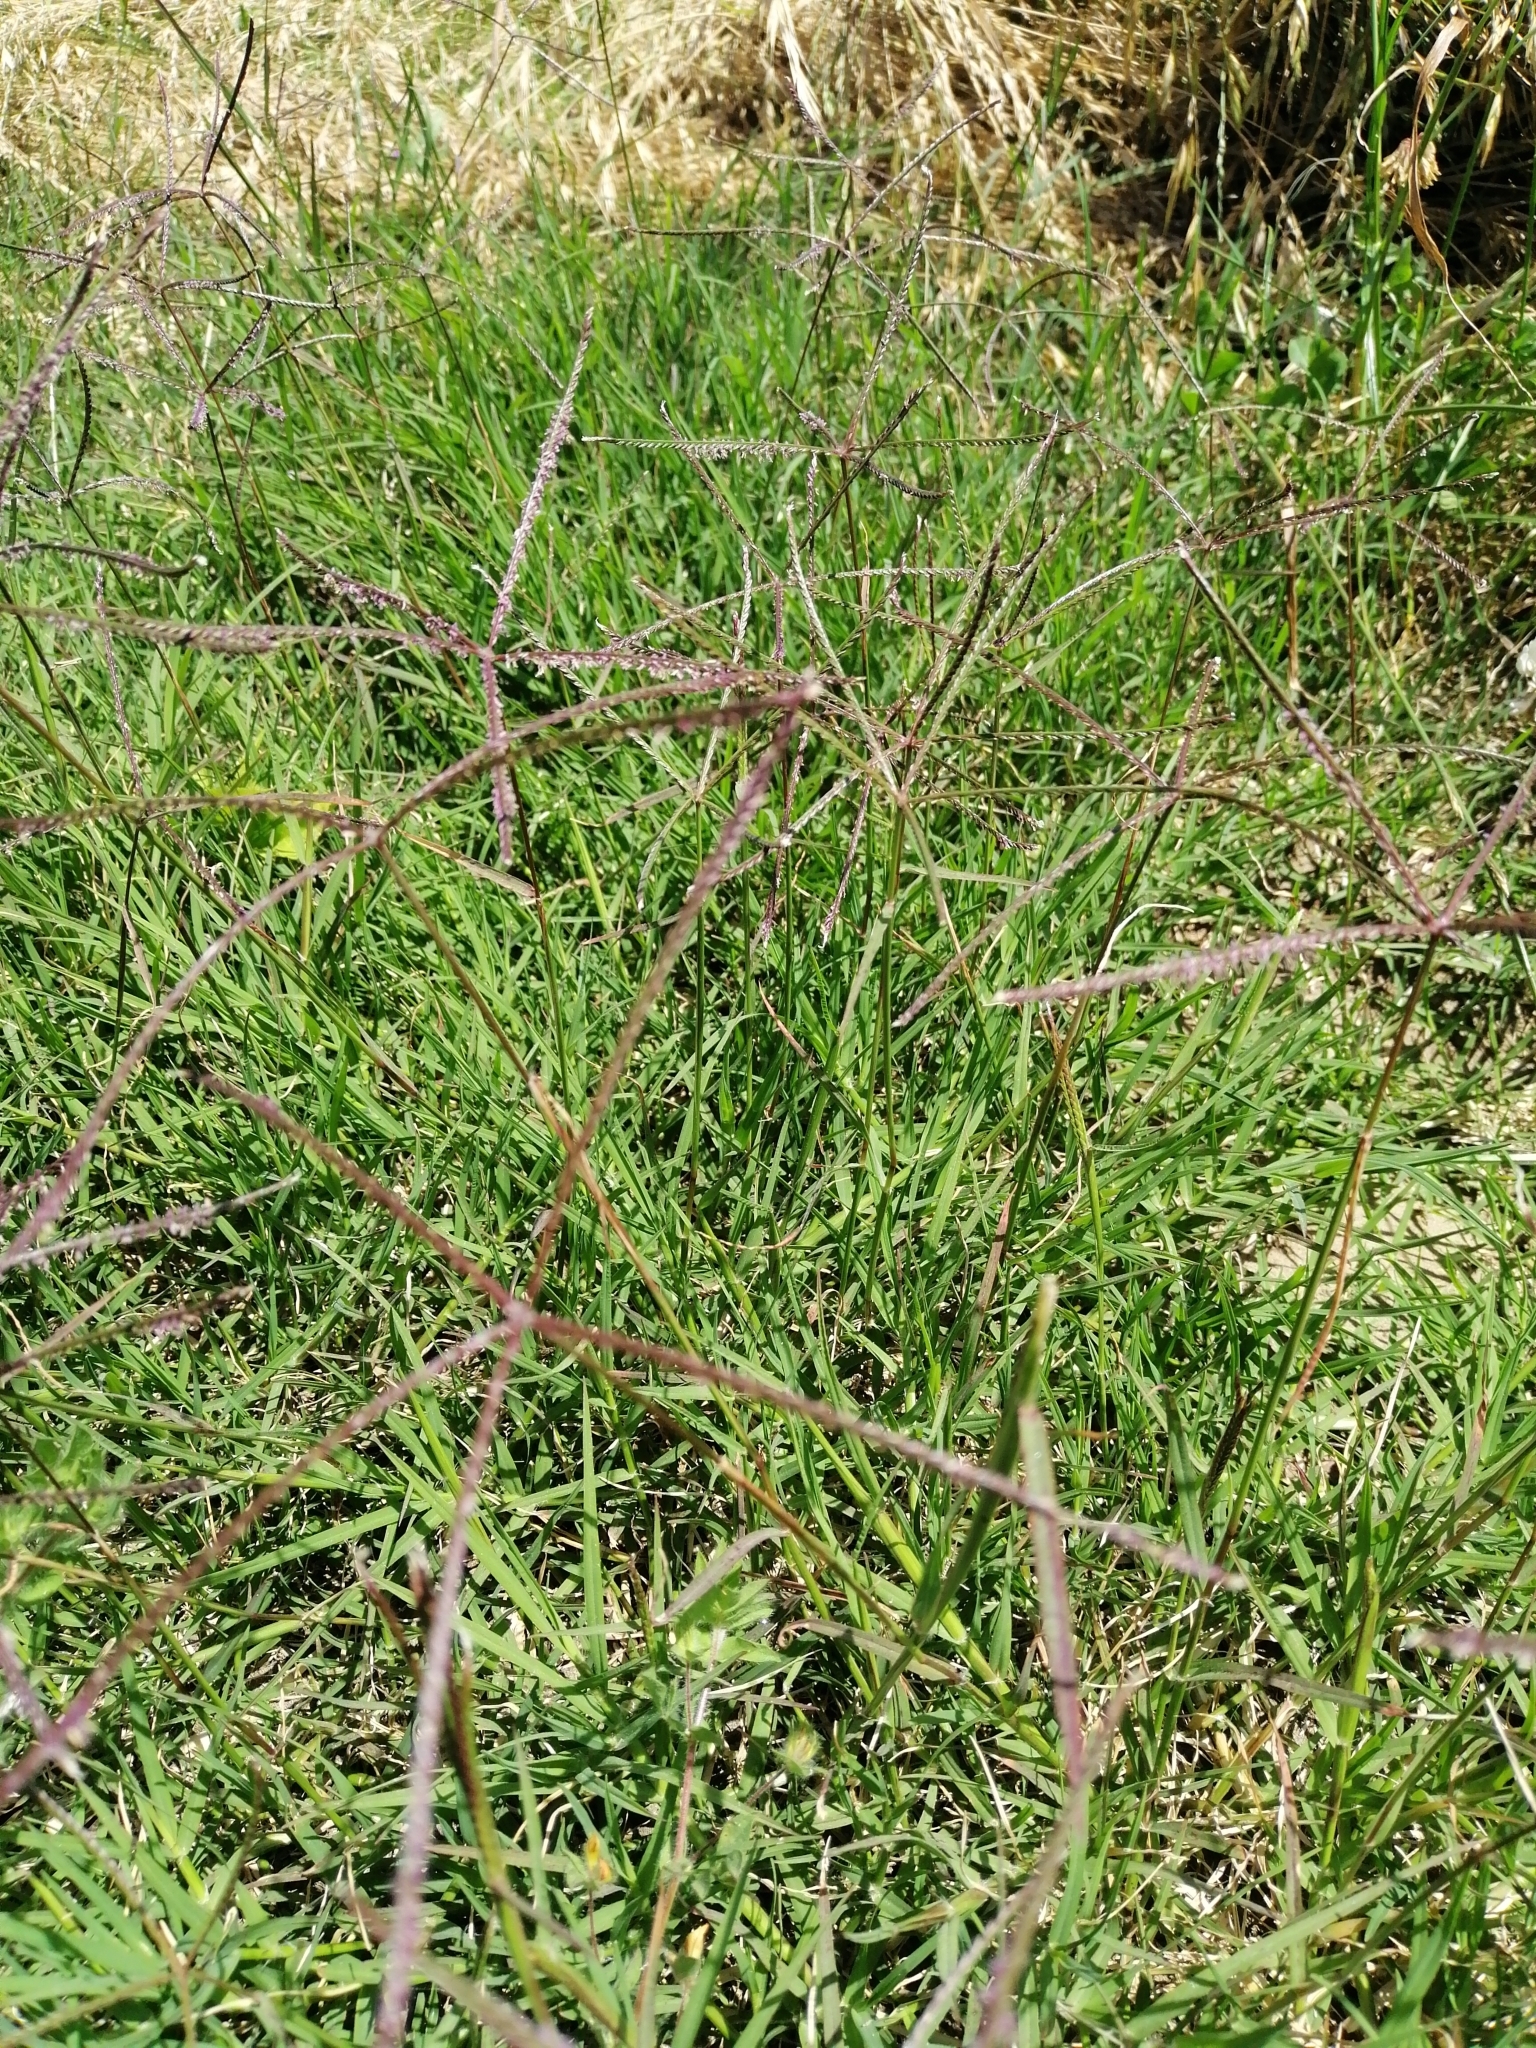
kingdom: Plantae
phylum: Tracheophyta
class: Liliopsida
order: Poales
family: Poaceae
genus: Cynodon
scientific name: Cynodon dactylon
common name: Bermuda grass
